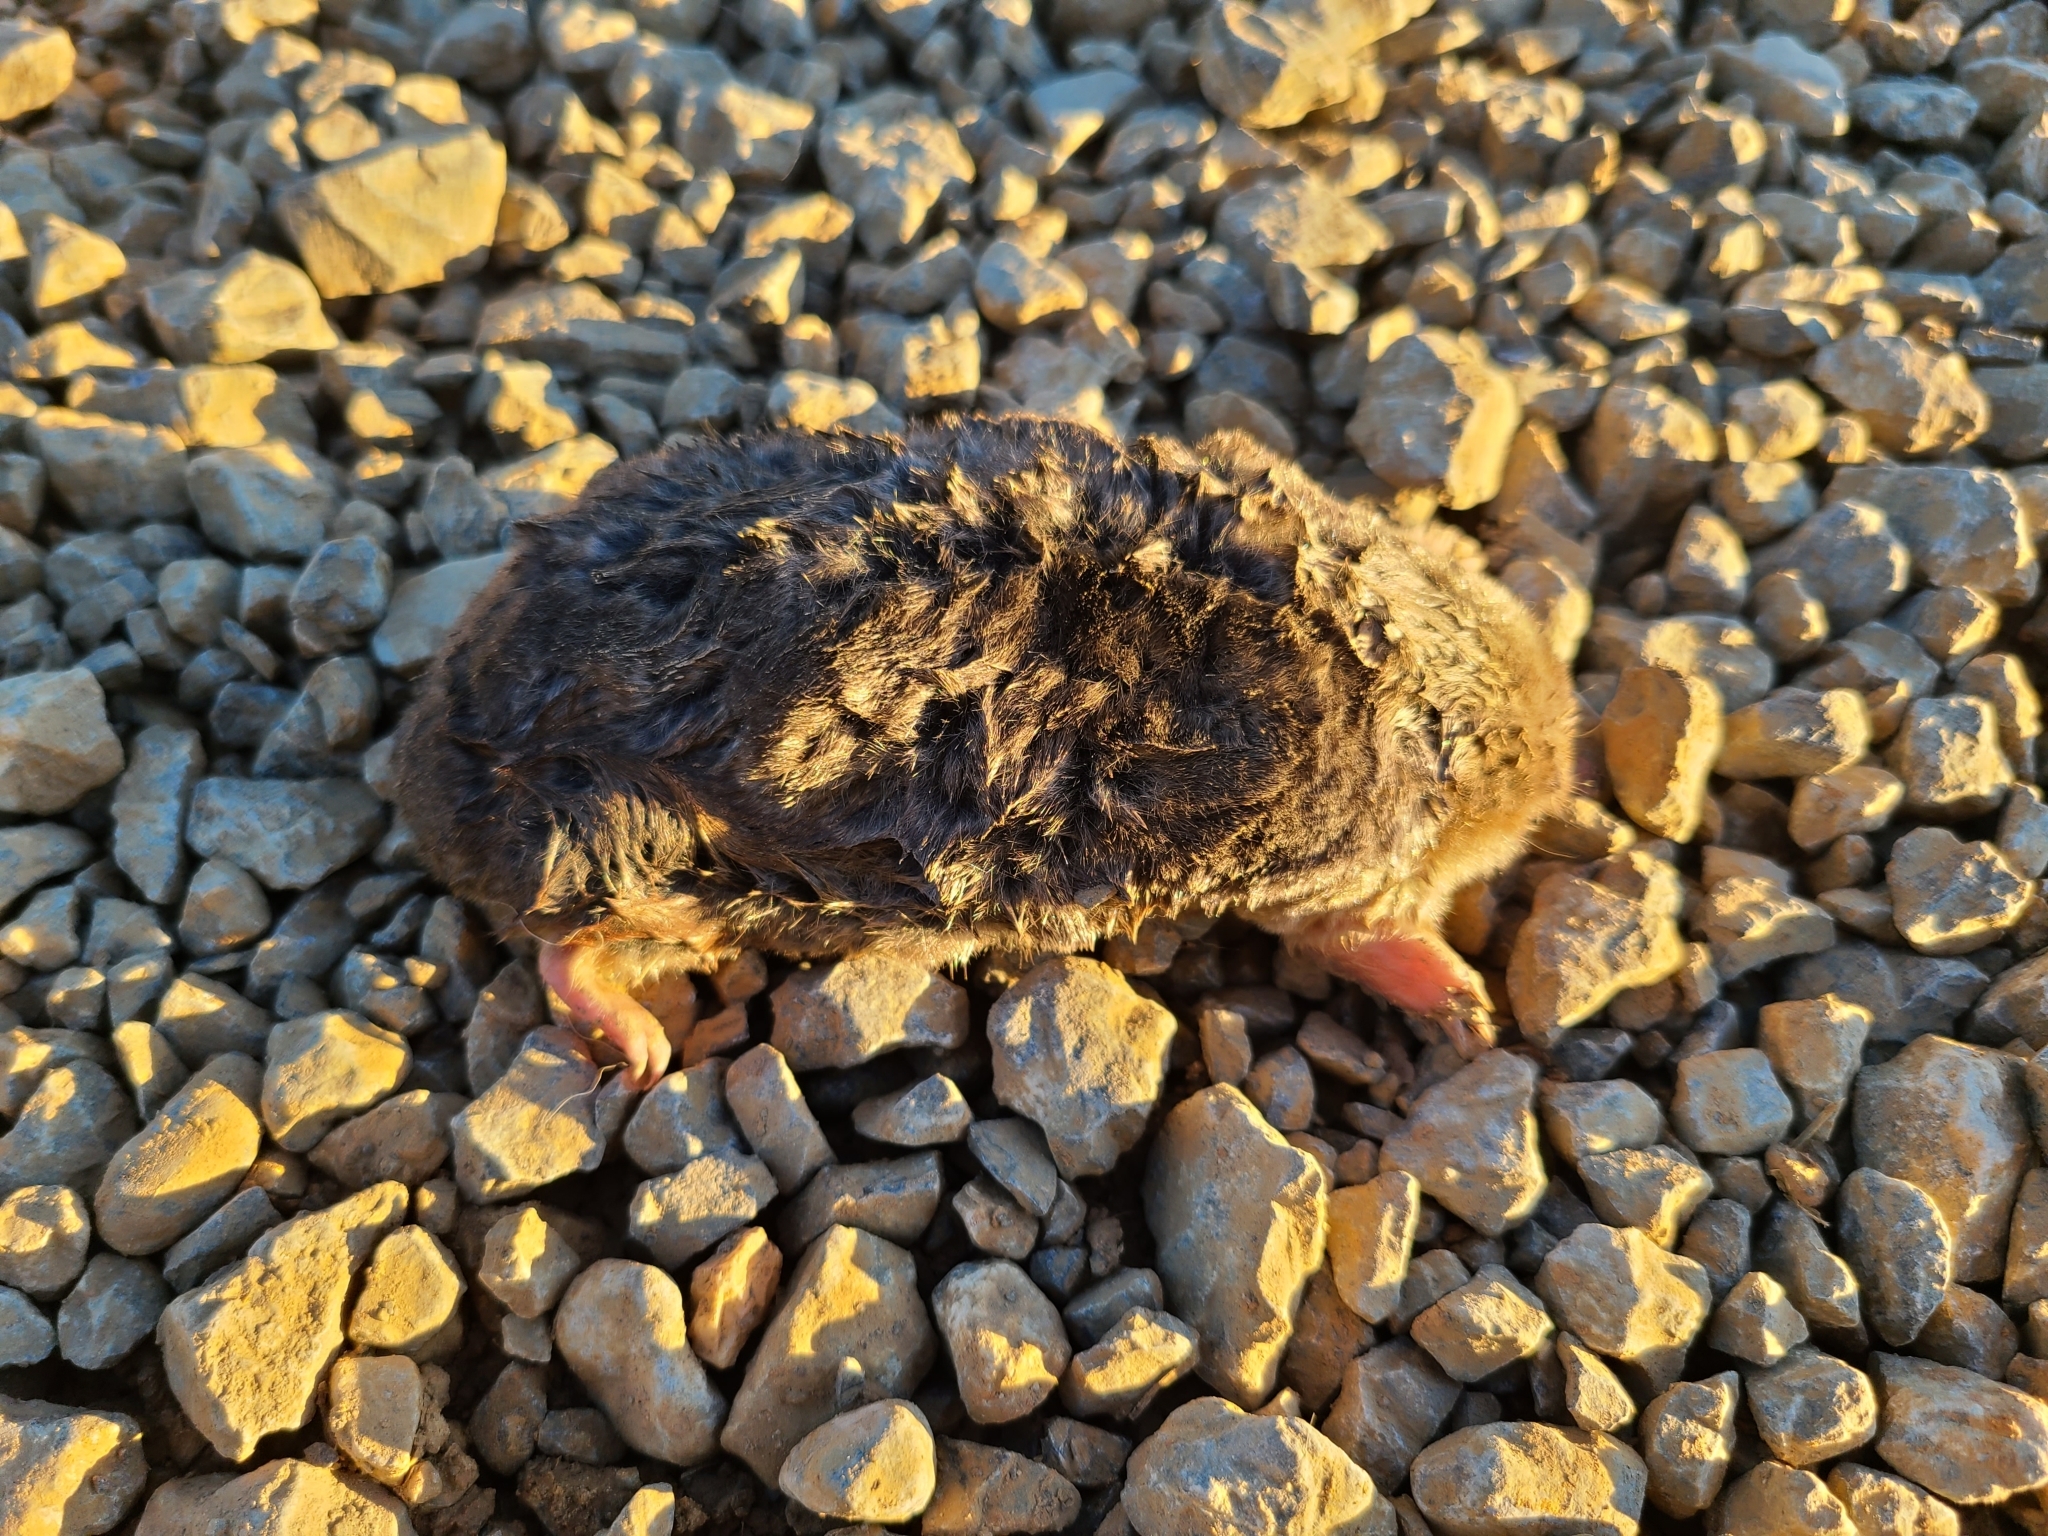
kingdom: Animalia
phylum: Chordata
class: Mammalia
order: Soricomorpha
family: Talpidae
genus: Scalopus
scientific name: Scalopus aquaticus
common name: Eastern mole
